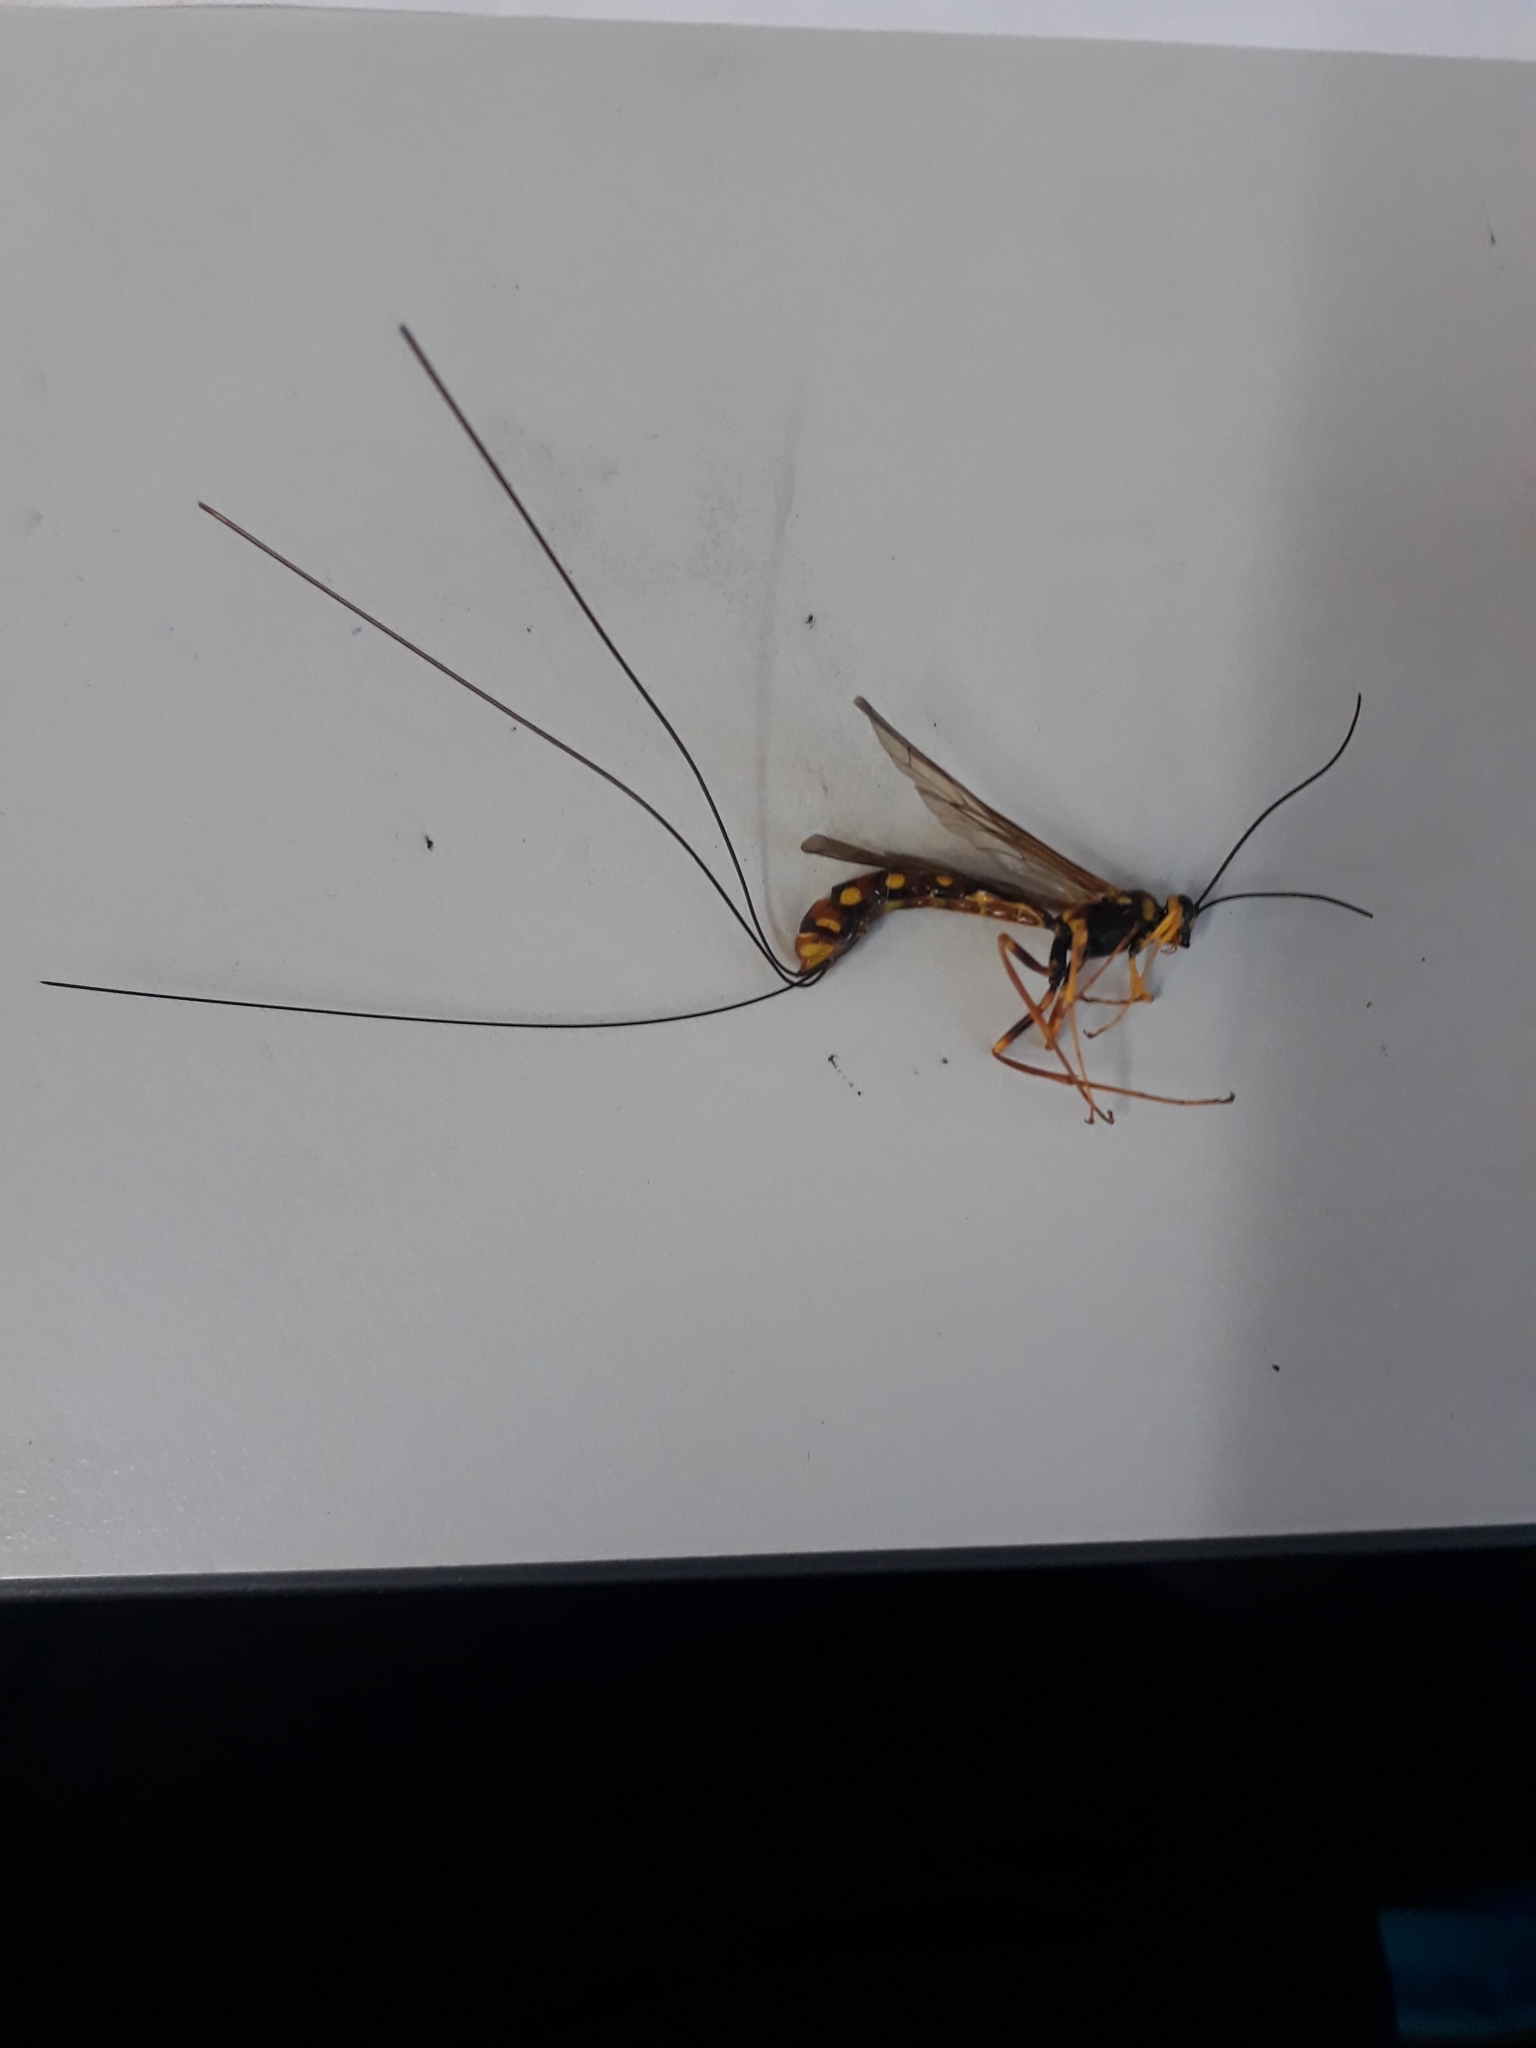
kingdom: Animalia
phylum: Arthropoda
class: Insecta
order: Hymenoptera
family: Ichneumonidae
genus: Megarhyssa
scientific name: Megarhyssa nortoni
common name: Norton's giant ichneumonid wasp
